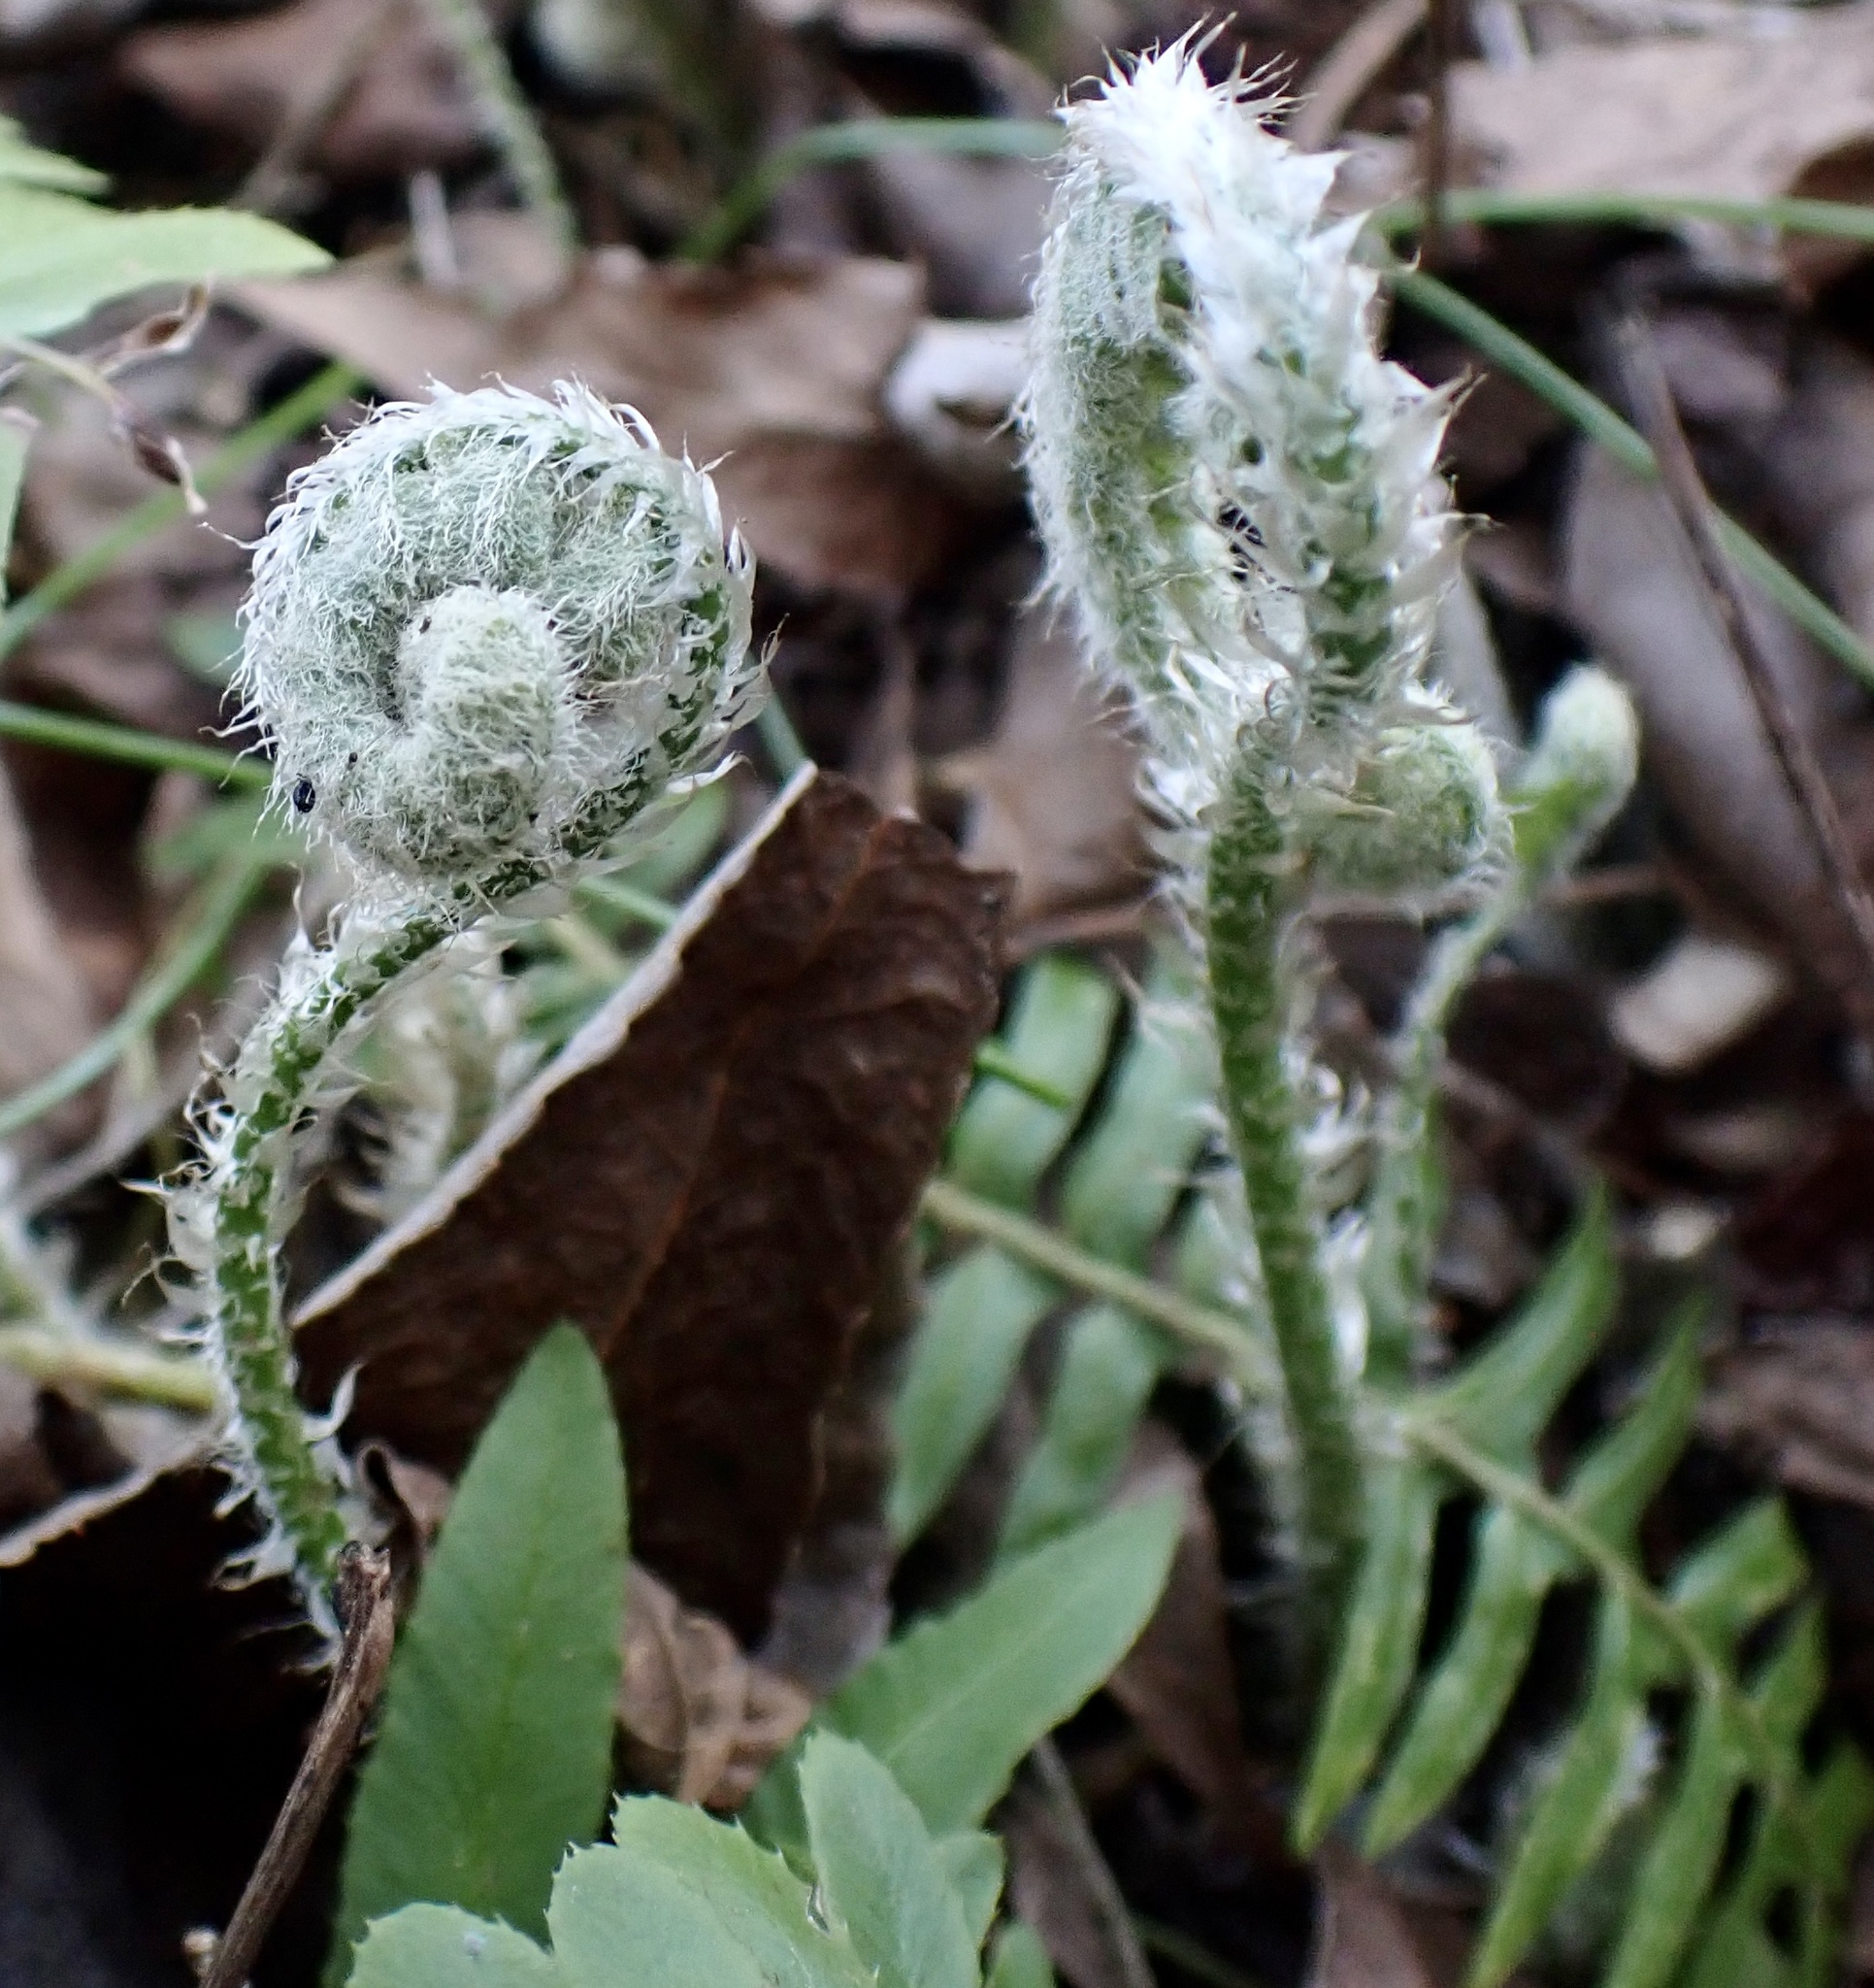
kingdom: Plantae
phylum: Tracheophyta
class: Polypodiopsida
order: Polypodiales
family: Dryopteridaceae
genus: Polystichum
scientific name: Polystichum acrostichoides
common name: Christmas fern
